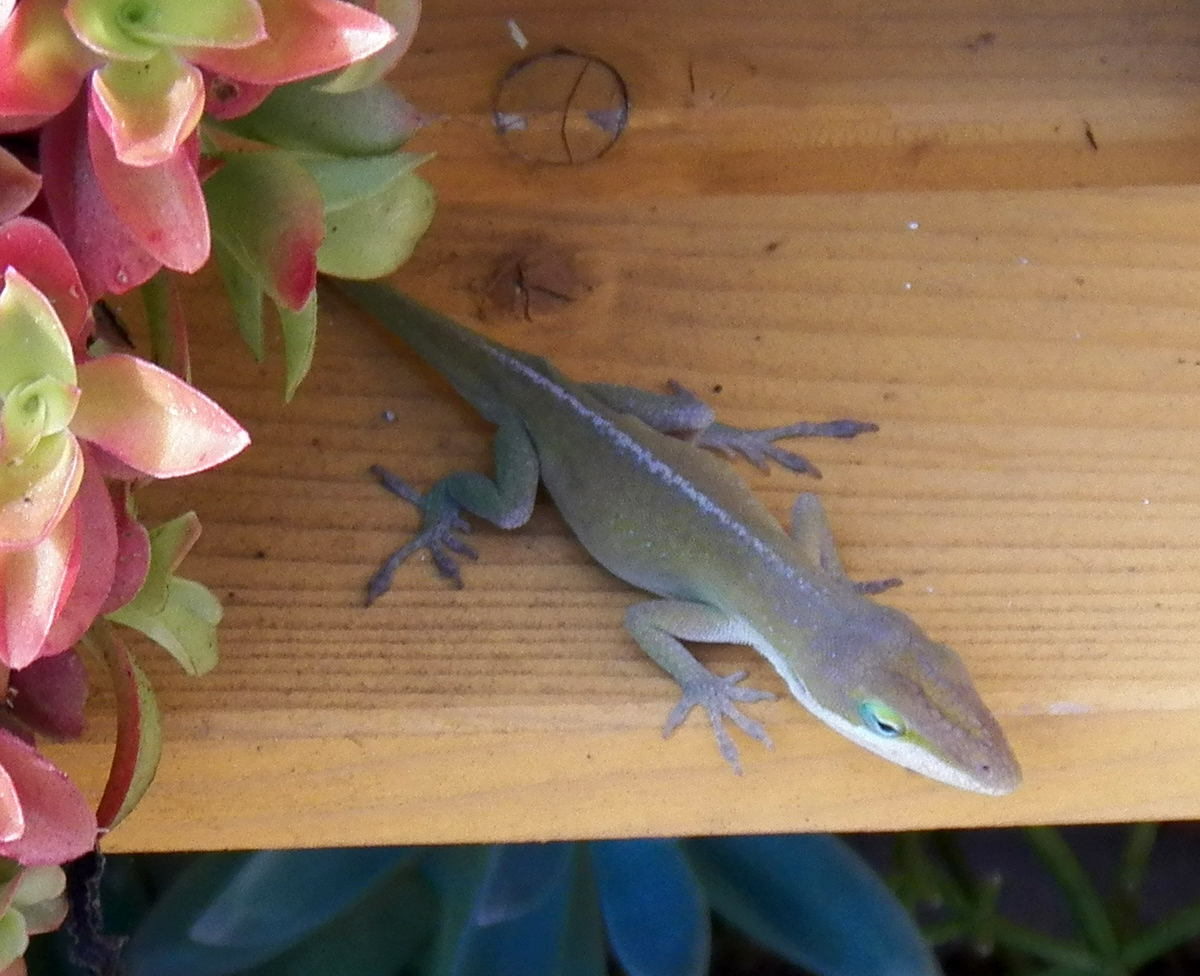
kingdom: Animalia
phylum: Chordata
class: Squamata
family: Dactyloidae
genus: Anolis
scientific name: Anolis carolinensis
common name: Green anole
